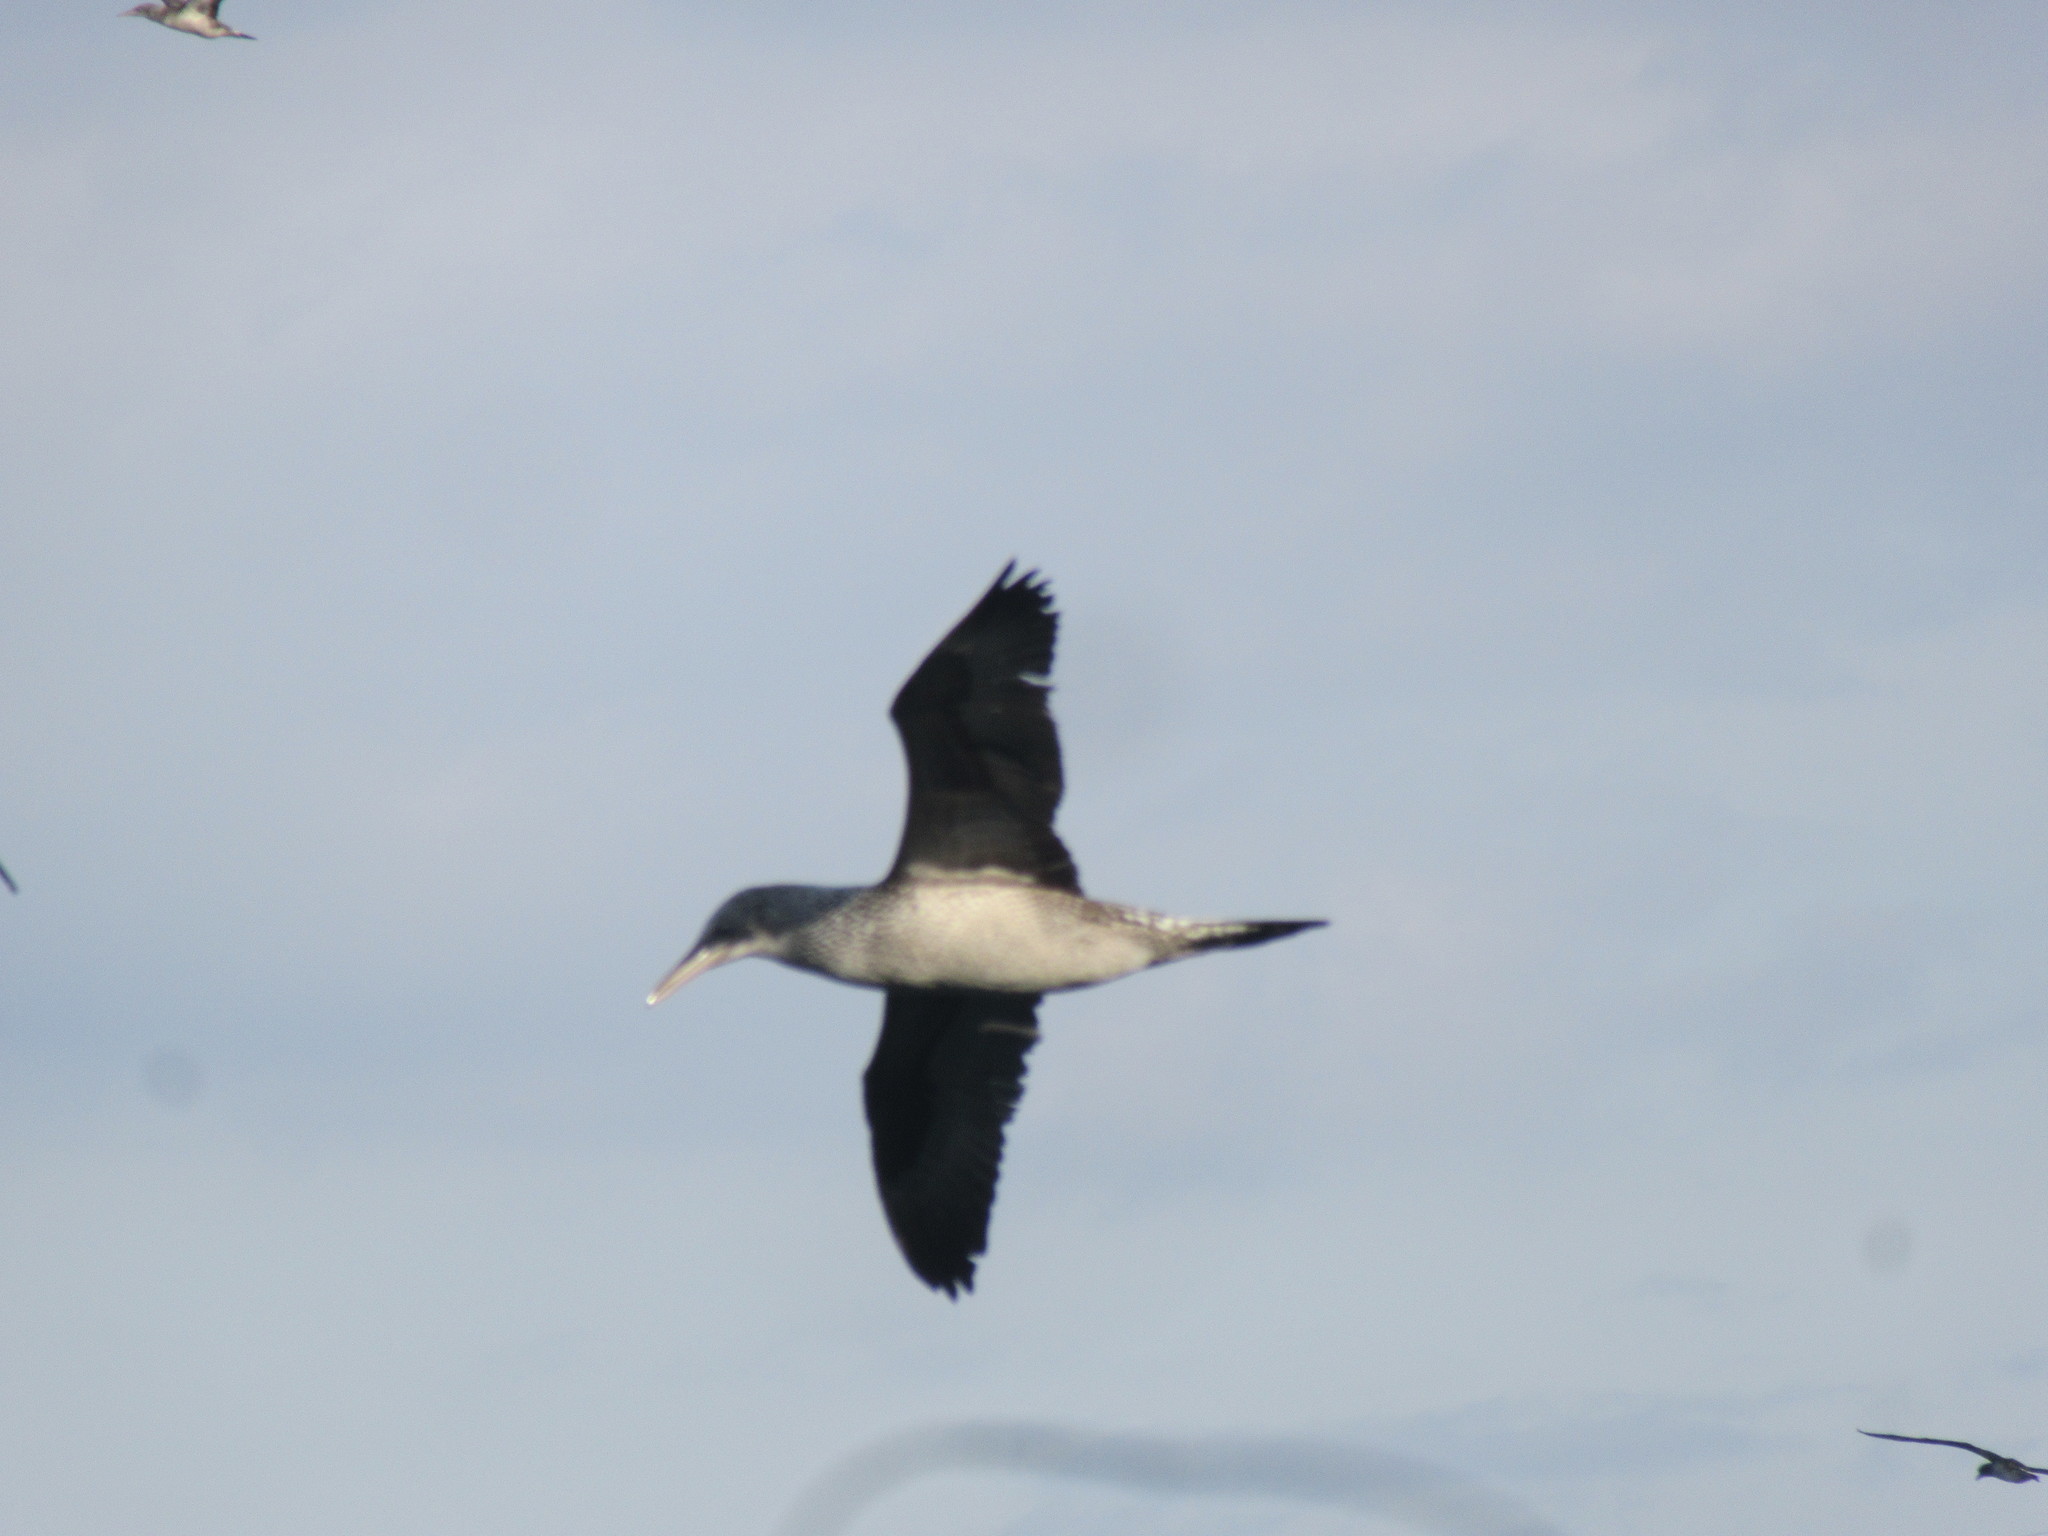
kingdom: Animalia
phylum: Chordata
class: Aves
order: Suliformes
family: Sulidae
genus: Morus
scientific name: Morus bassanus
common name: Northern gannet
